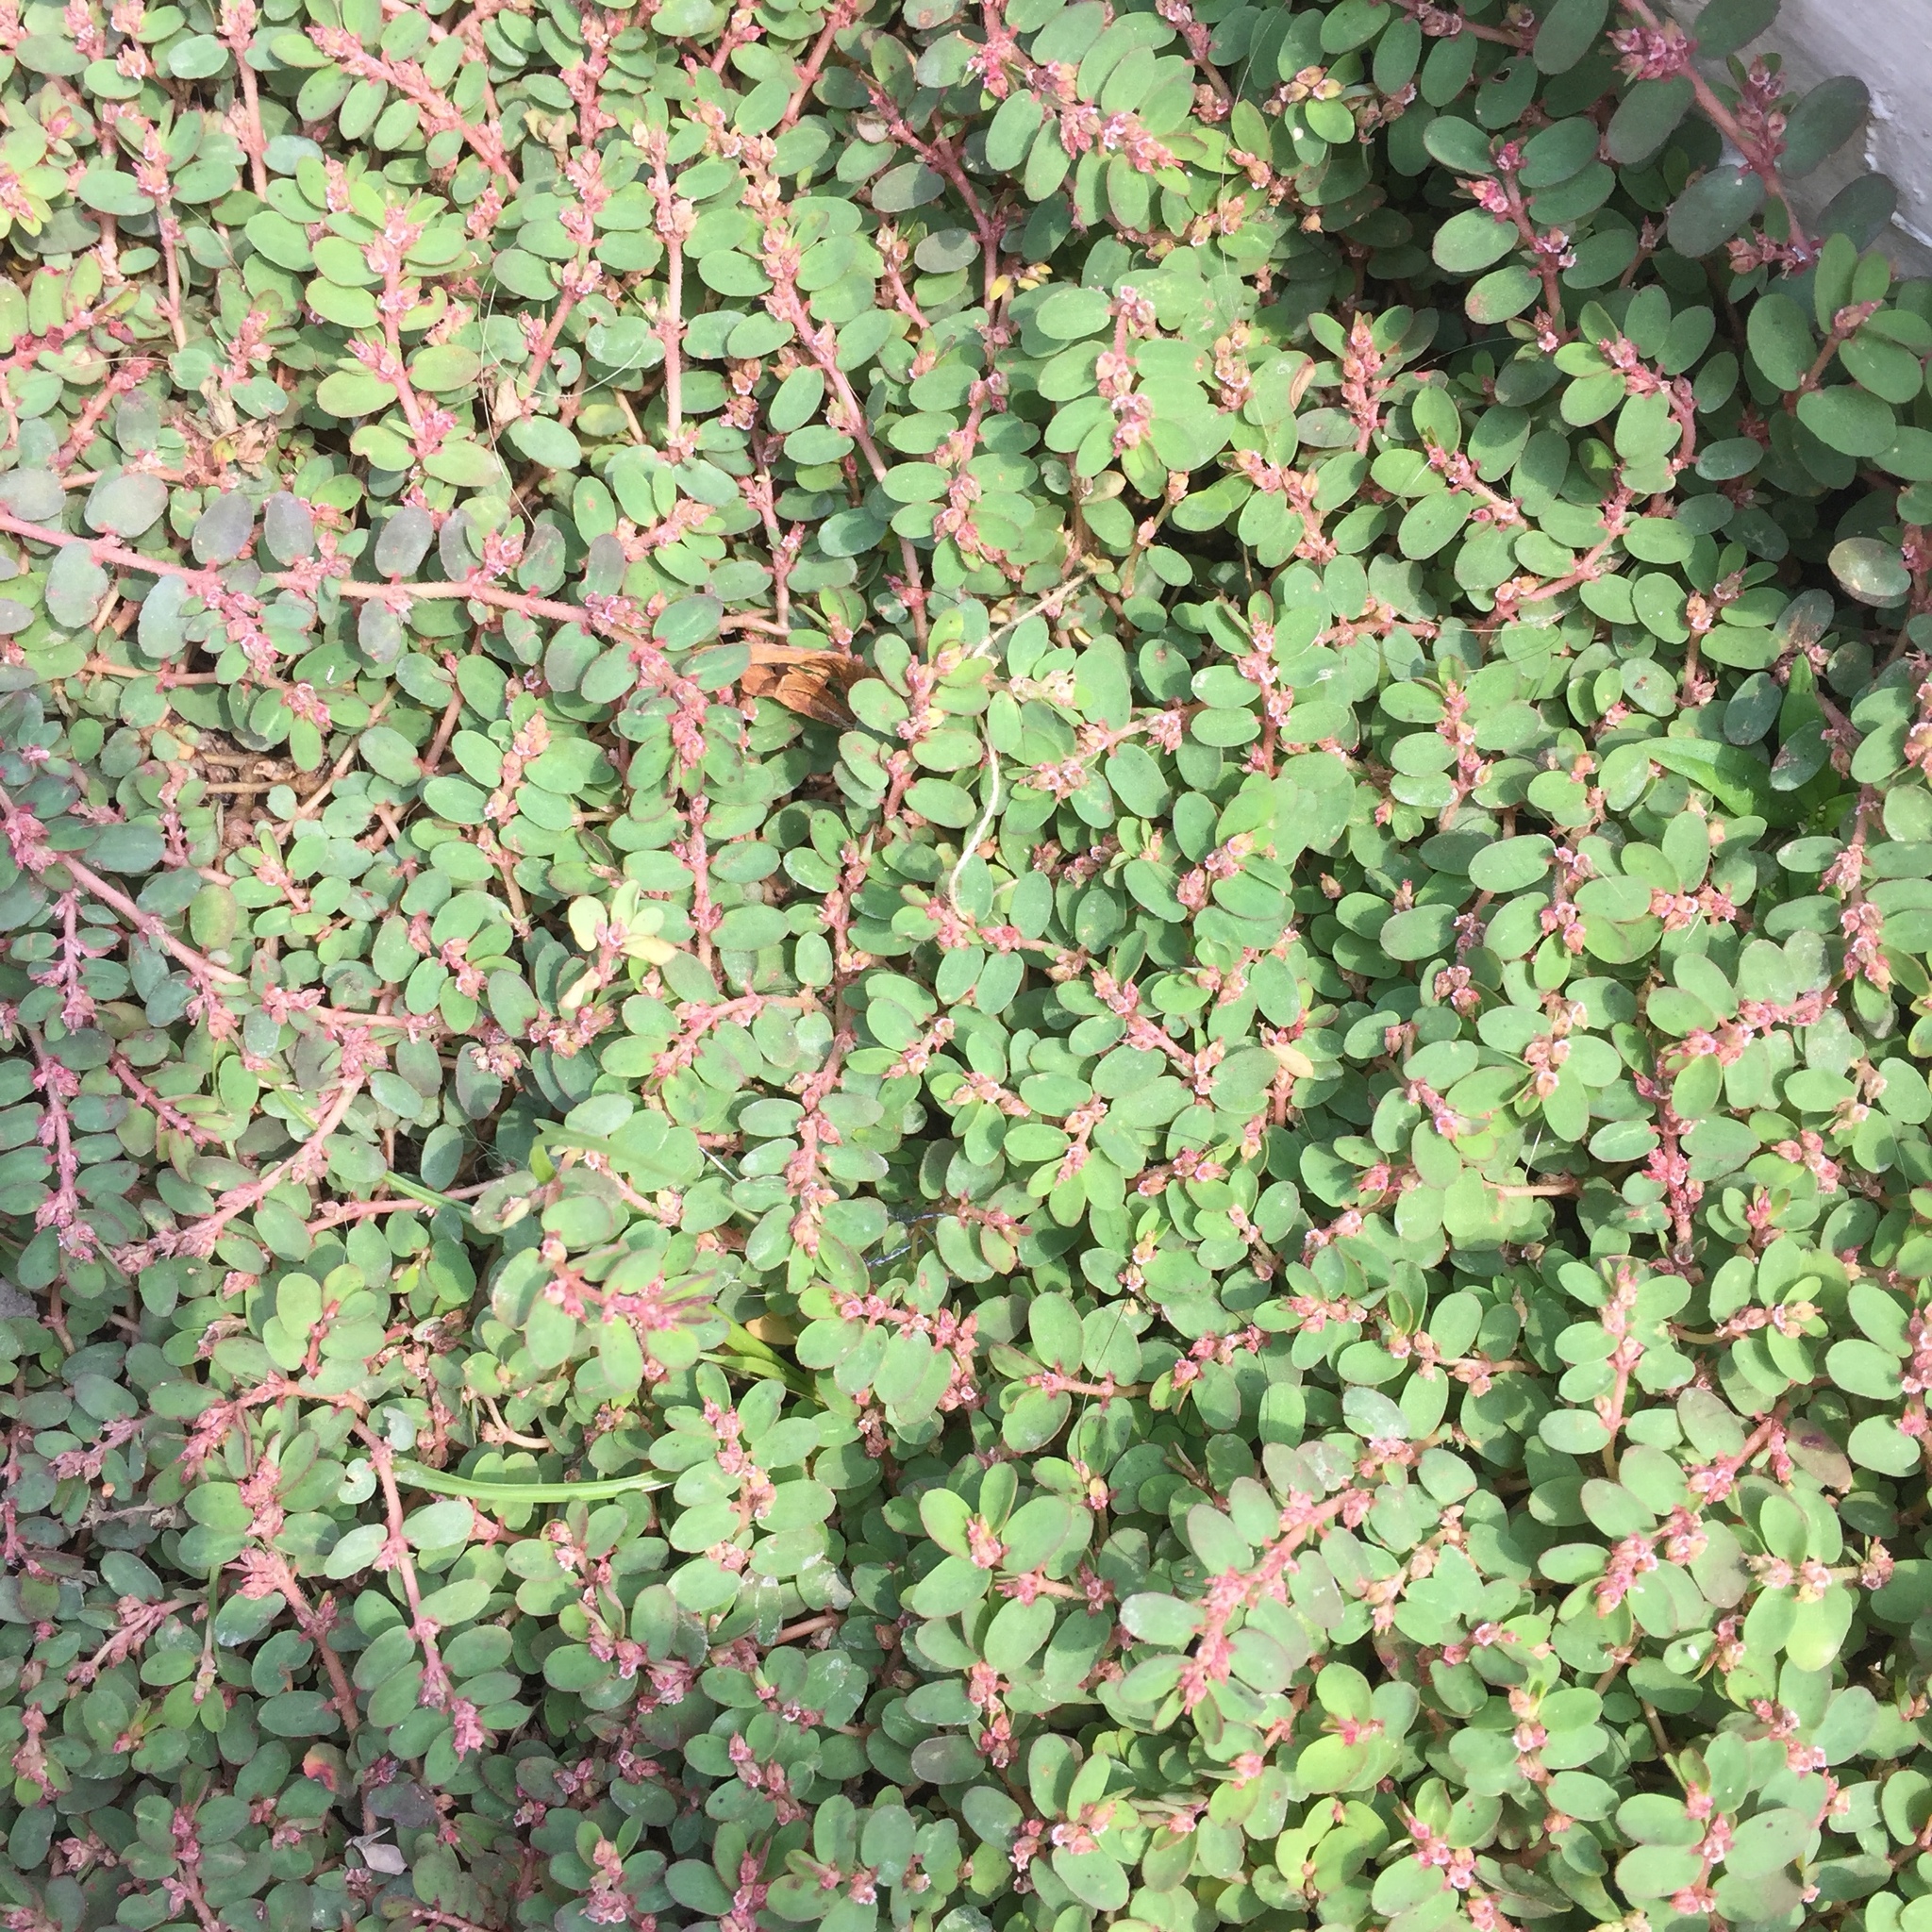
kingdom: Plantae
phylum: Tracheophyta
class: Magnoliopsida
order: Malpighiales
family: Euphorbiaceae
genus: Euphorbia
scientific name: Euphorbia thymifolia
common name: Gulf sandmat
